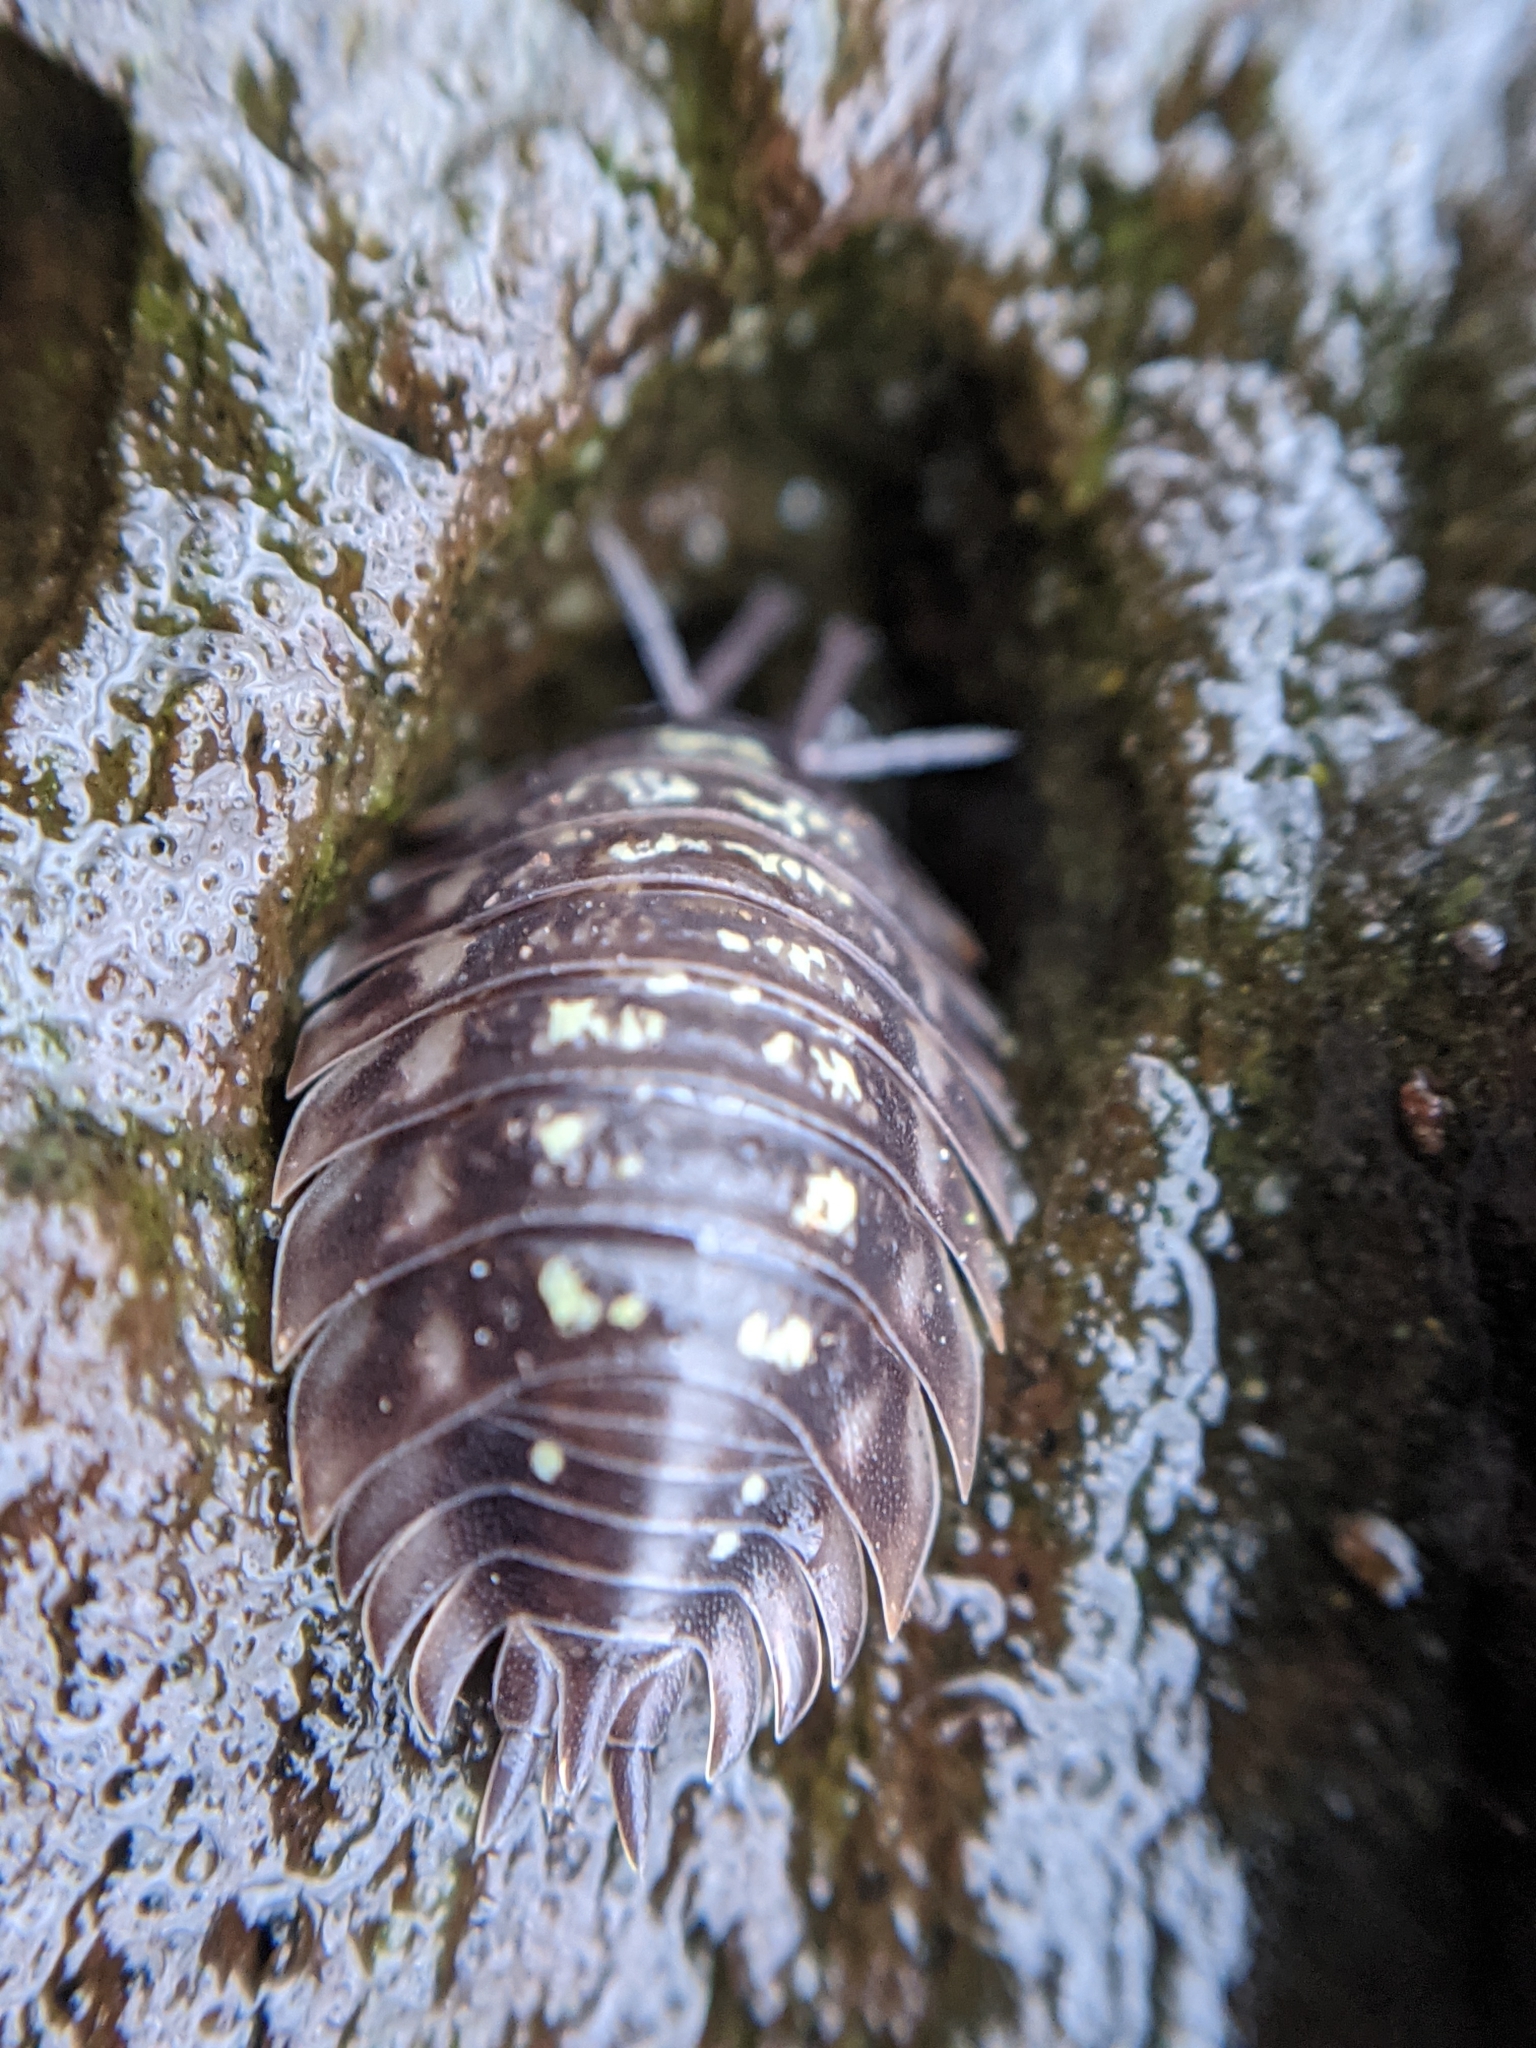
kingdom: Animalia
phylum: Arthropoda
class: Malacostraca
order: Isopoda
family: Oniscidae
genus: Oniscus
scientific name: Oniscus asellus
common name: Common shiny woodlouse
